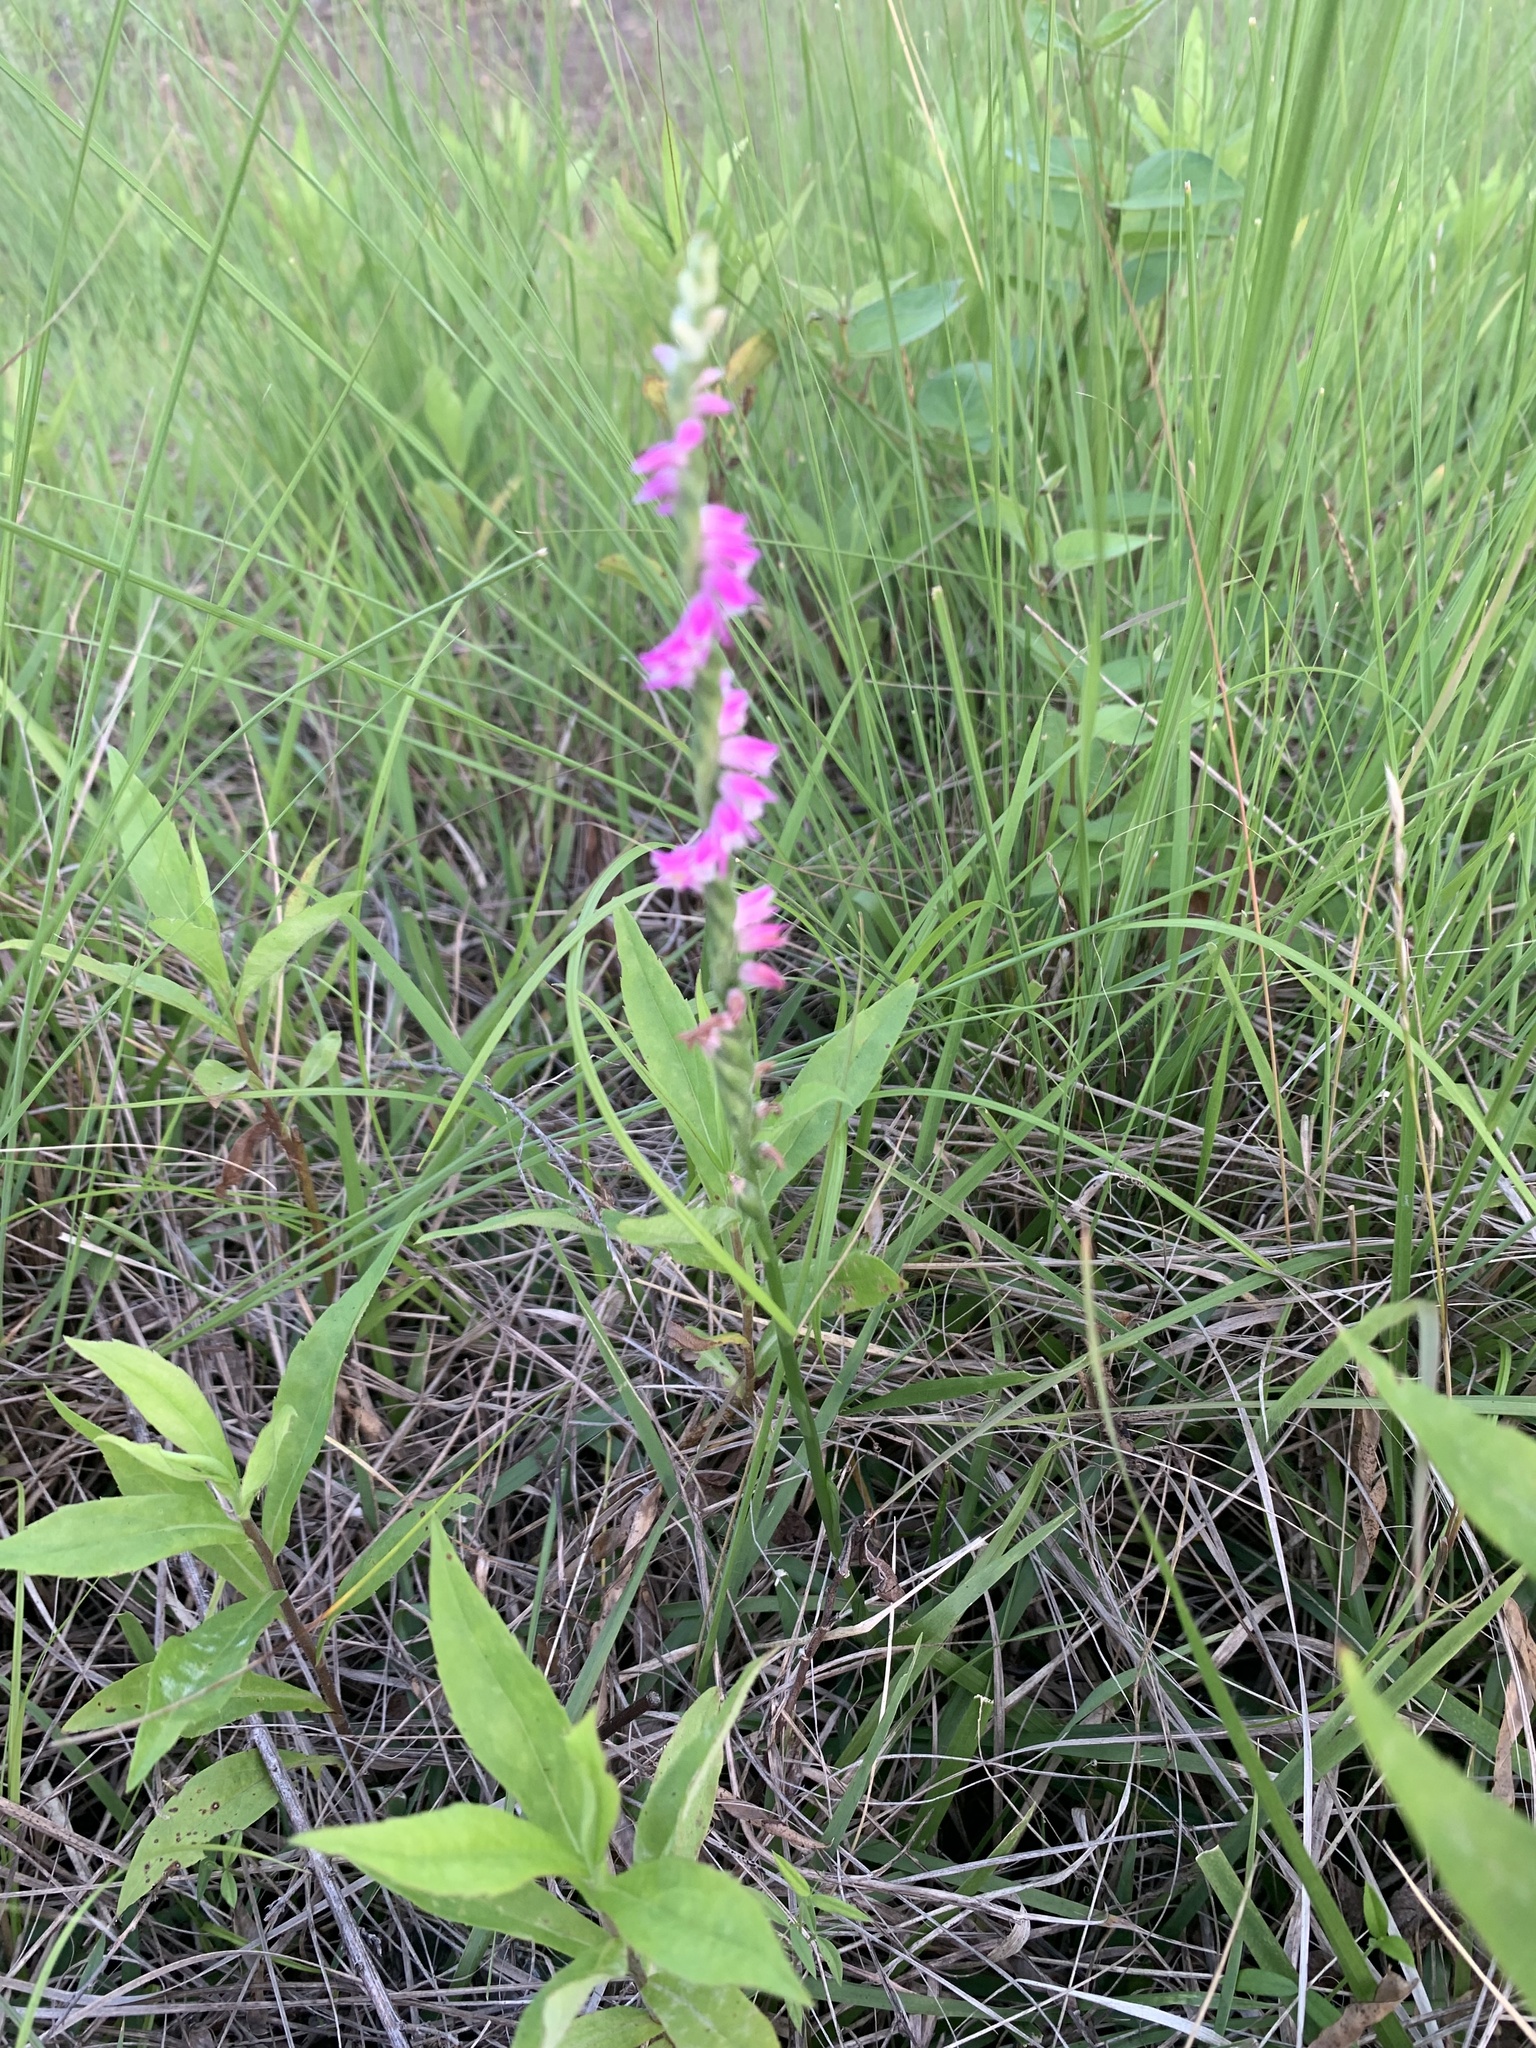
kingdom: Plantae
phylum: Tracheophyta
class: Liliopsida
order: Asparagales
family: Orchidaceae
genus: Spiranthes
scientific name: Spiranthes australis
